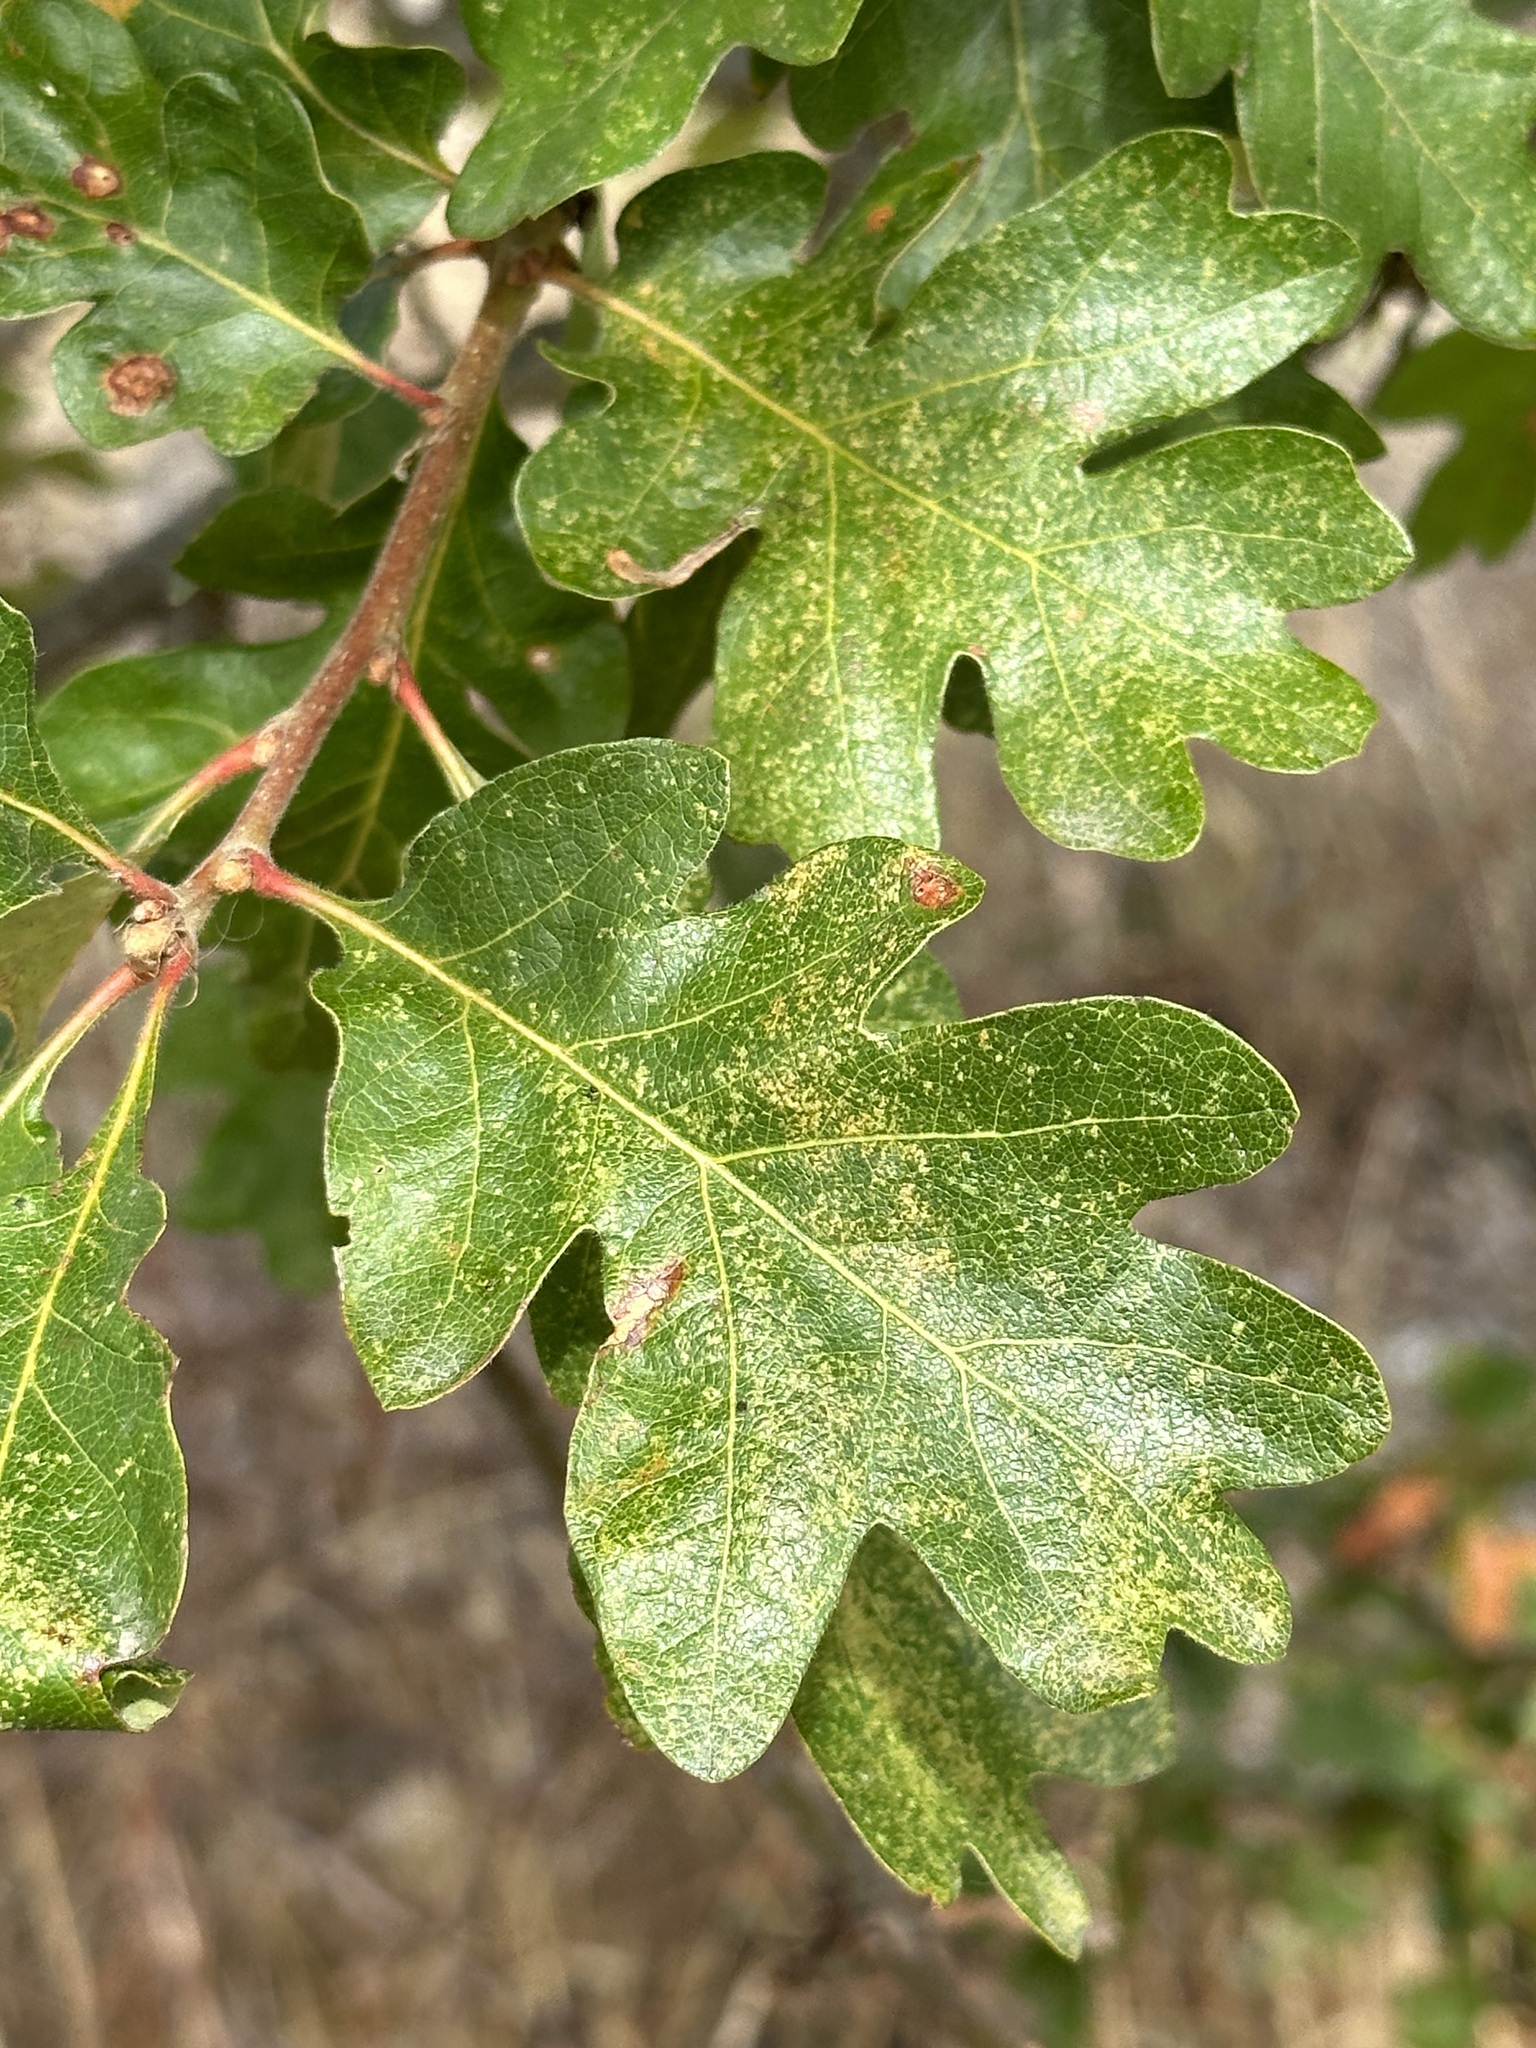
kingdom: Plantae
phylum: Tracheophyta
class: Magnoliopsida
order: Fagales
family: Fagaceae
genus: Quercus
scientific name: Quercus garryana
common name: Garry oak
